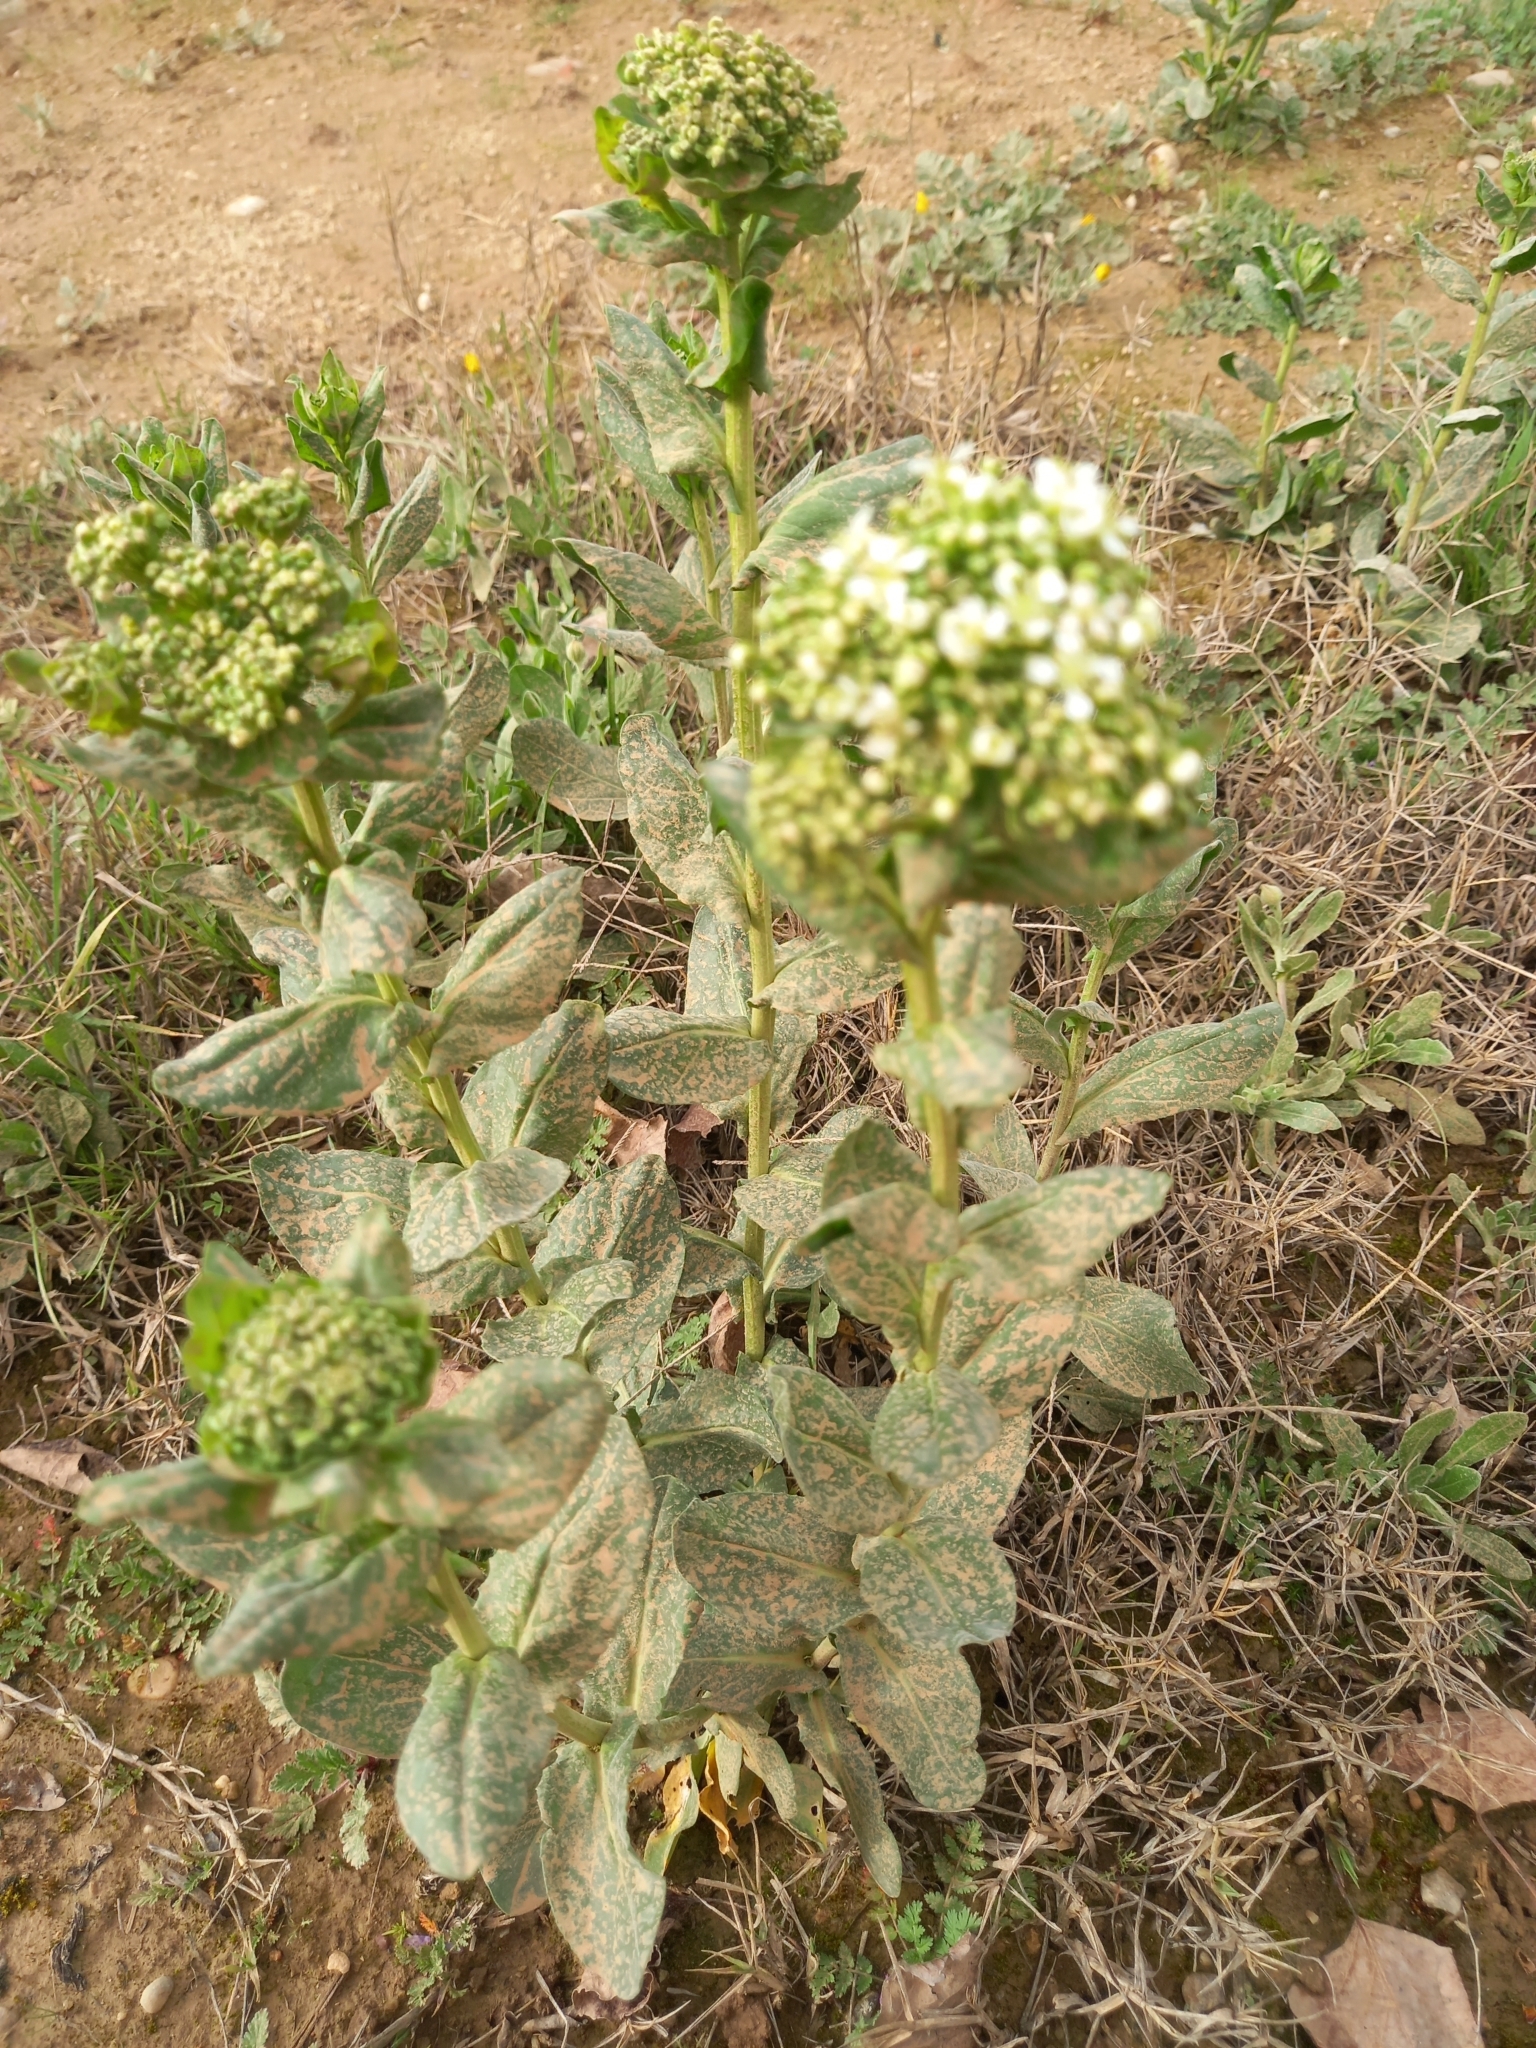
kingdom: Plantae
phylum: Tracheophyta
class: Magnoliopsida
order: Brassicales
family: Brassicaceae
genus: Lepidium
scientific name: Lepidium draba
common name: Hoary cress
